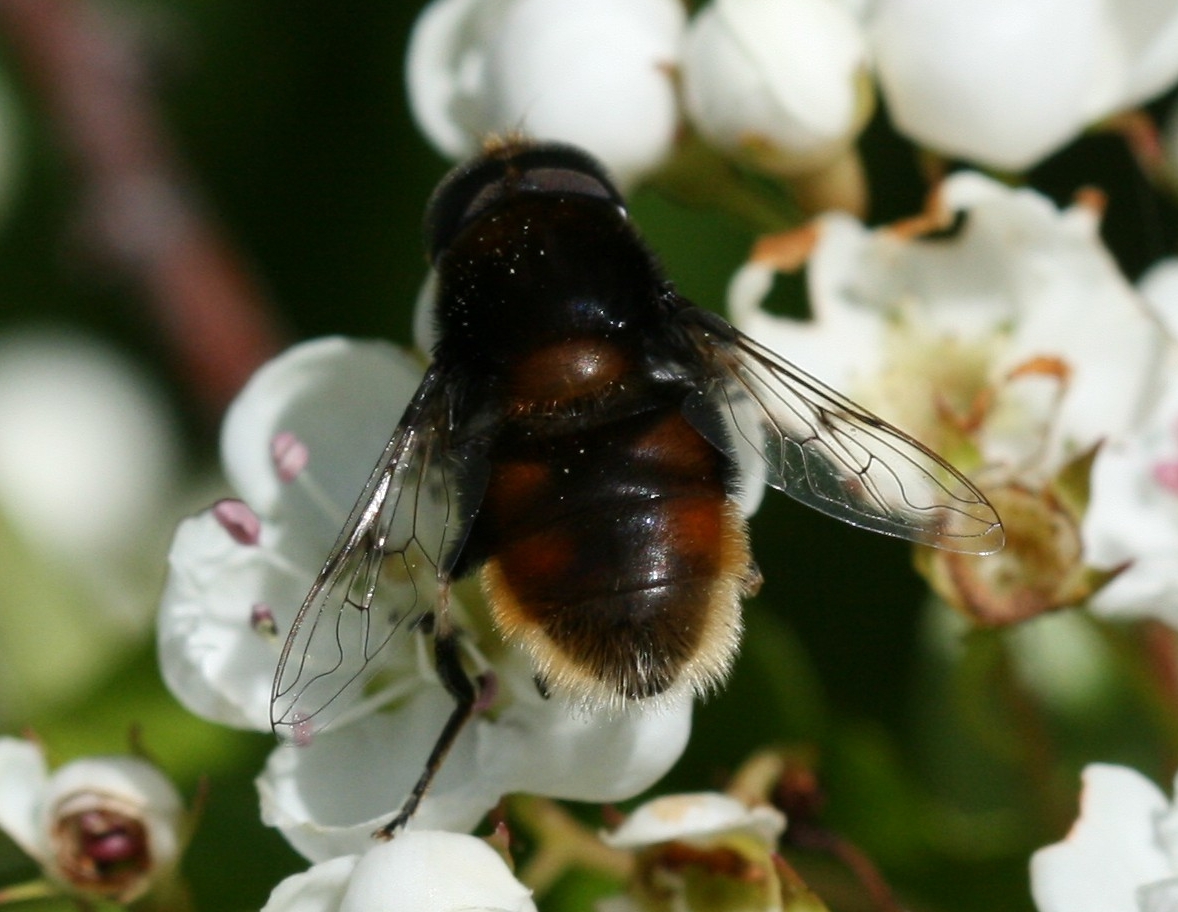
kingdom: Animalia
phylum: Arthropoda
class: Insecta
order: Diptera
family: Syrphidae
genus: Eristalis
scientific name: Eristalis intricaria
